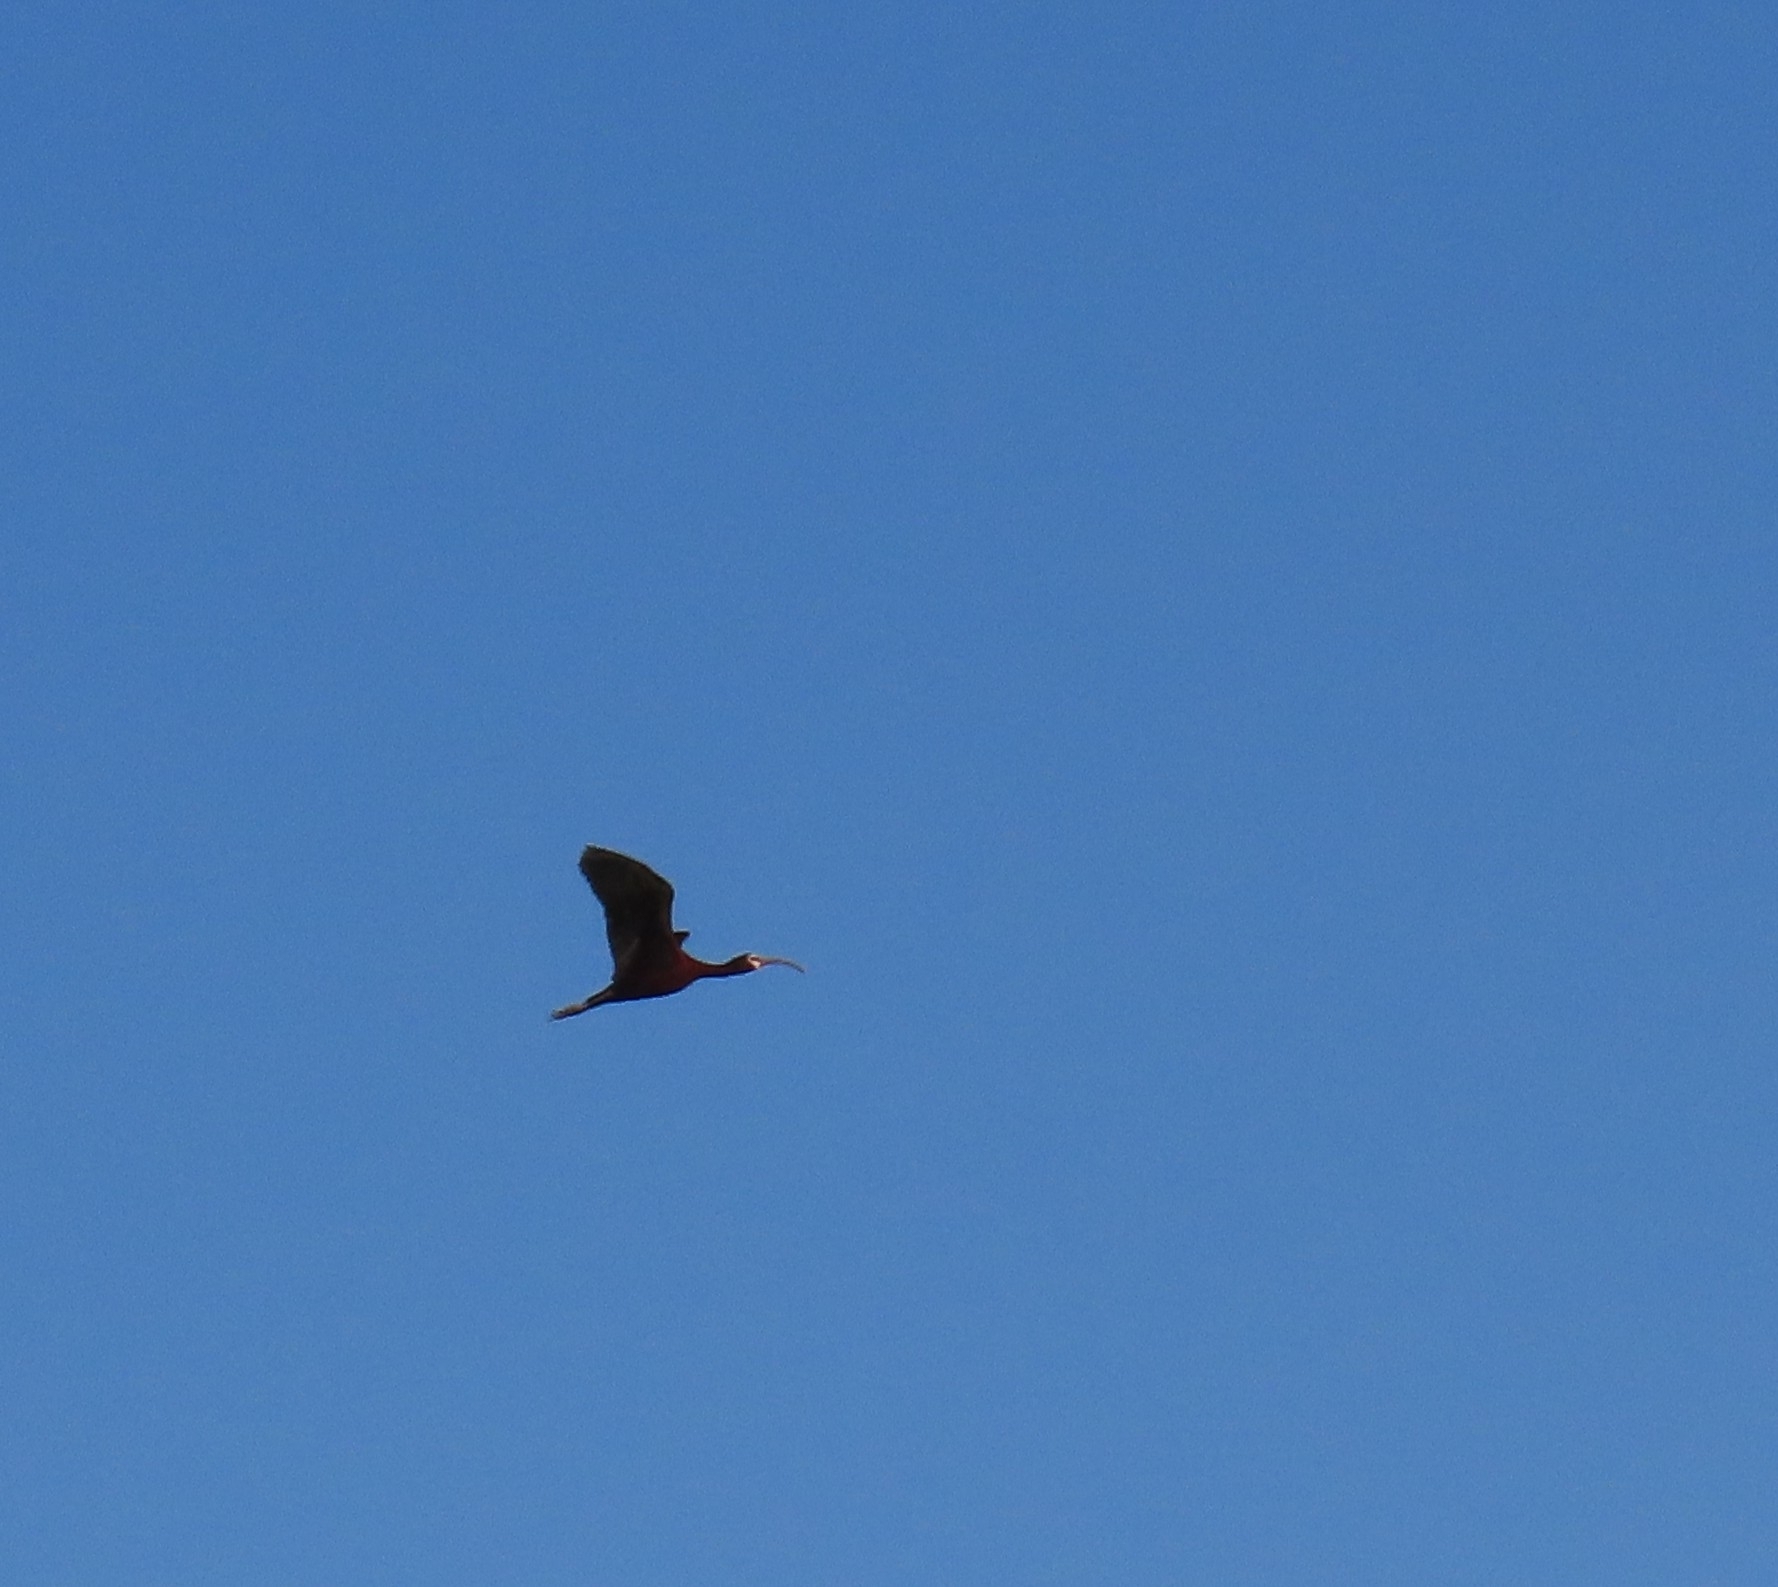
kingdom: Animalia
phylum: Chordata
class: Aves
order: Pelecaniformes
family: Threskiornithidae
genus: Plegadis
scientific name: Plegadis chihi
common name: White-faced ibis
